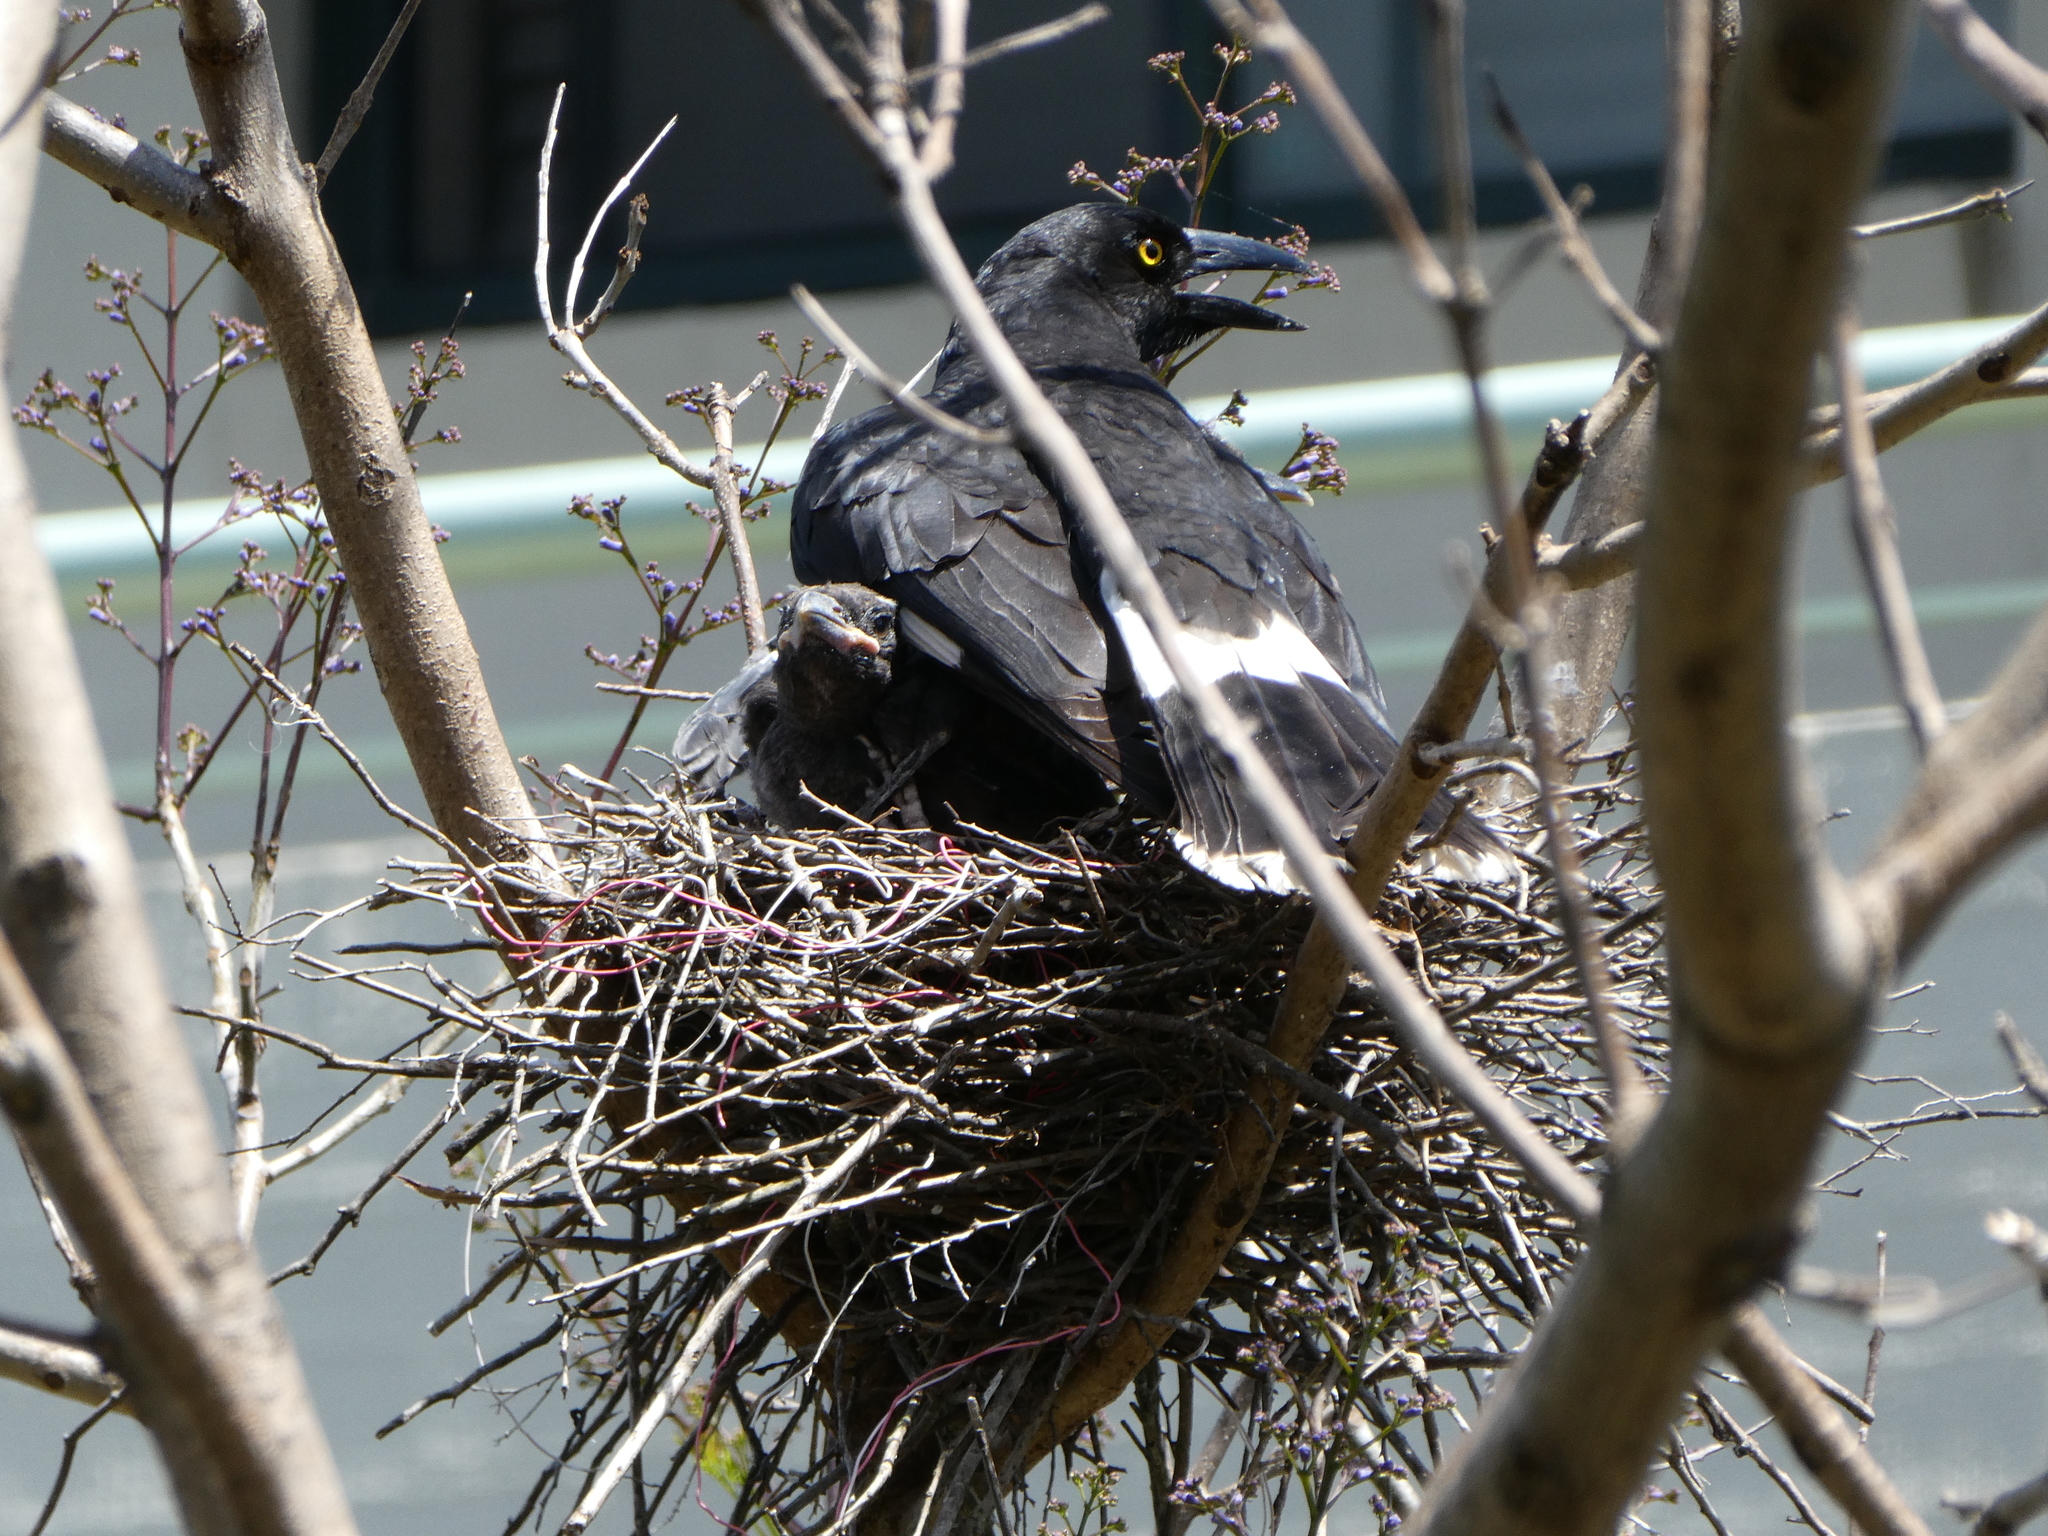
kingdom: Animalia
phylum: Chordata
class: Aves
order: Passeriformes
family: Cracticidae
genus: Strepera
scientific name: Strepera graculina
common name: Pied currawong
